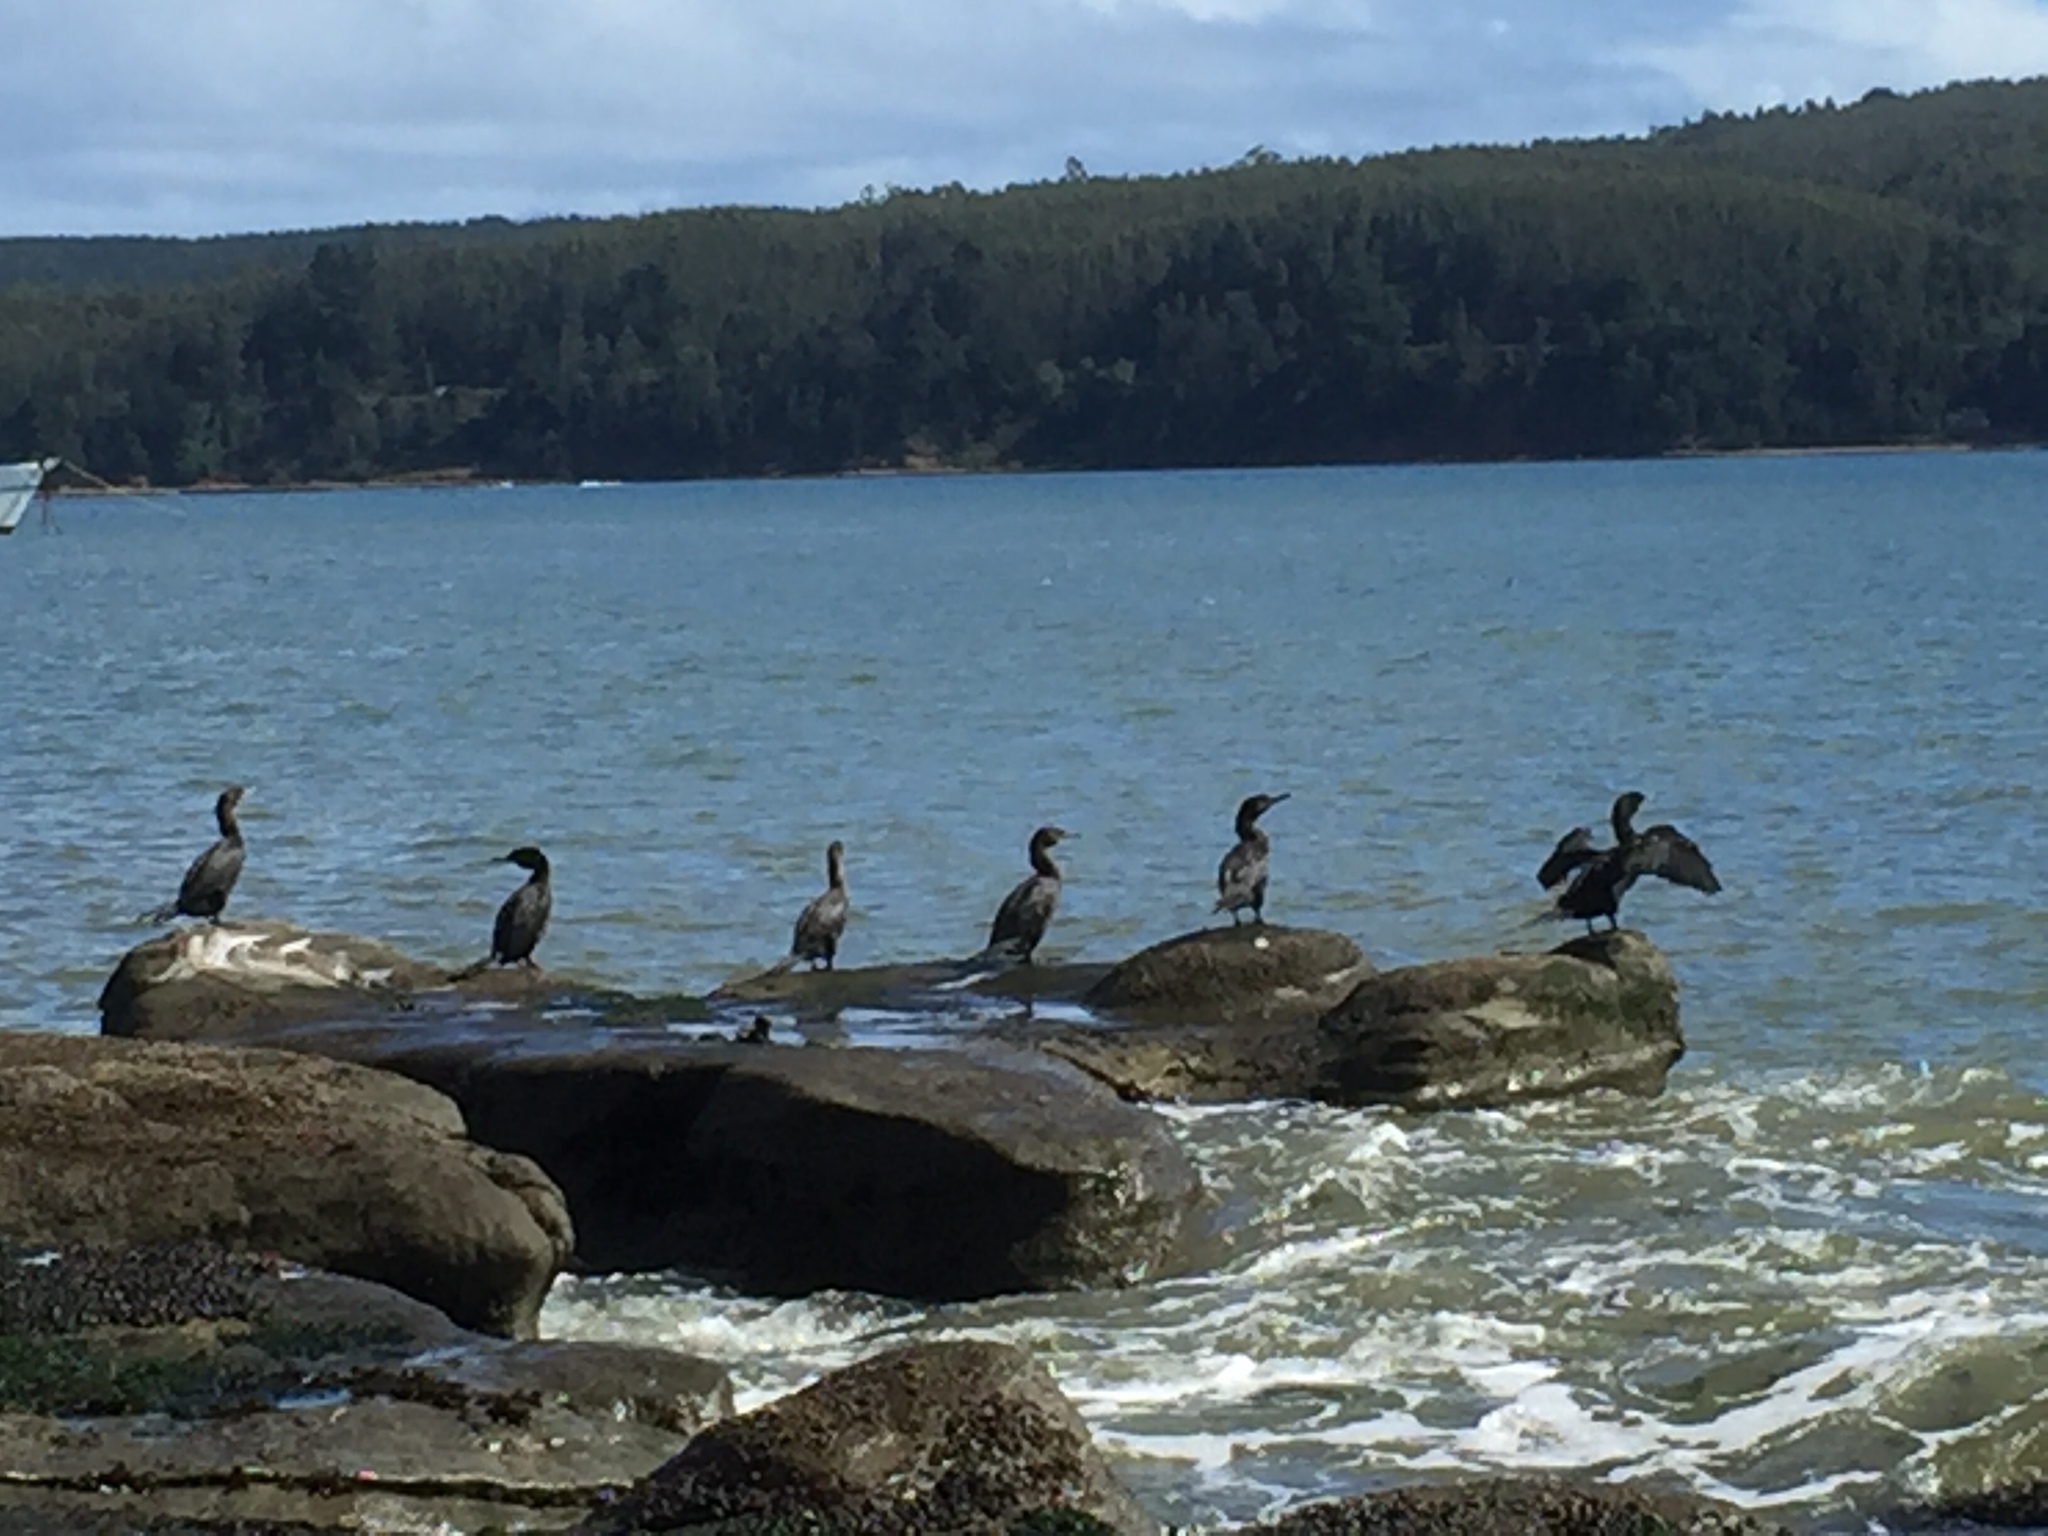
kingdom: Animalia
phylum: Chordata
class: Aves
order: Suliformes
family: Phalacrocoracidae
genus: Phalacrocorax
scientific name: Phalacrocorax brasilianus
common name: Neotropic cormorant
